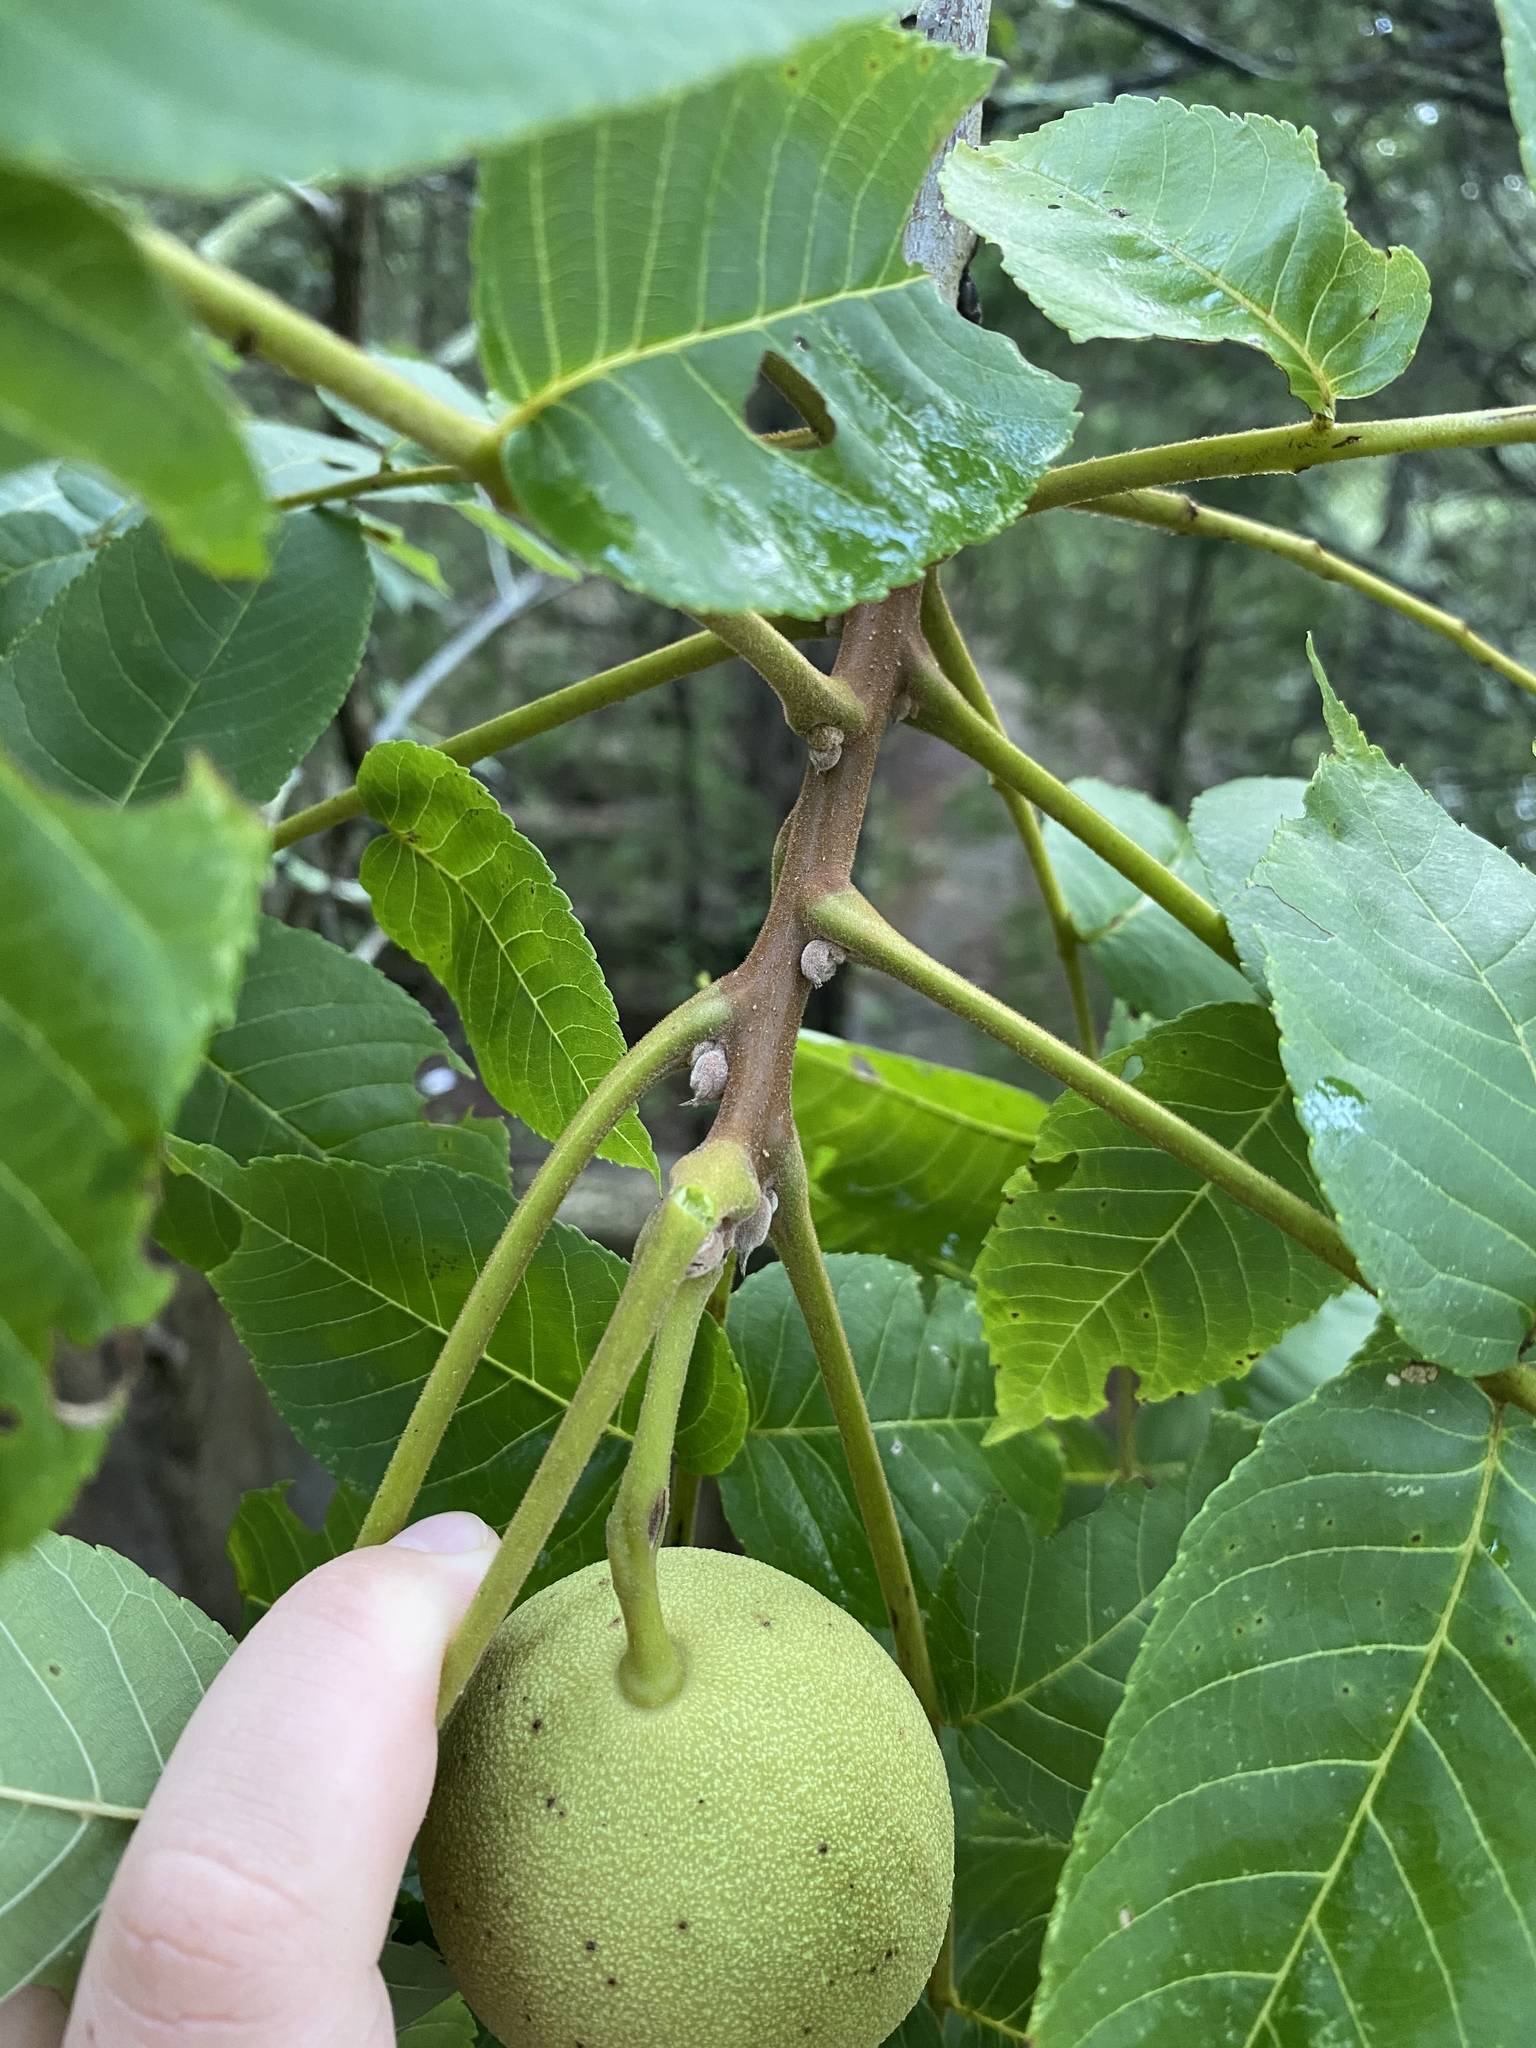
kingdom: Plantae
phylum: Tracheophyta
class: Magnoliopsida
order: Fagales
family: Juglandaceae
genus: Juglans
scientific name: Juglans nigra
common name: Black walnut
